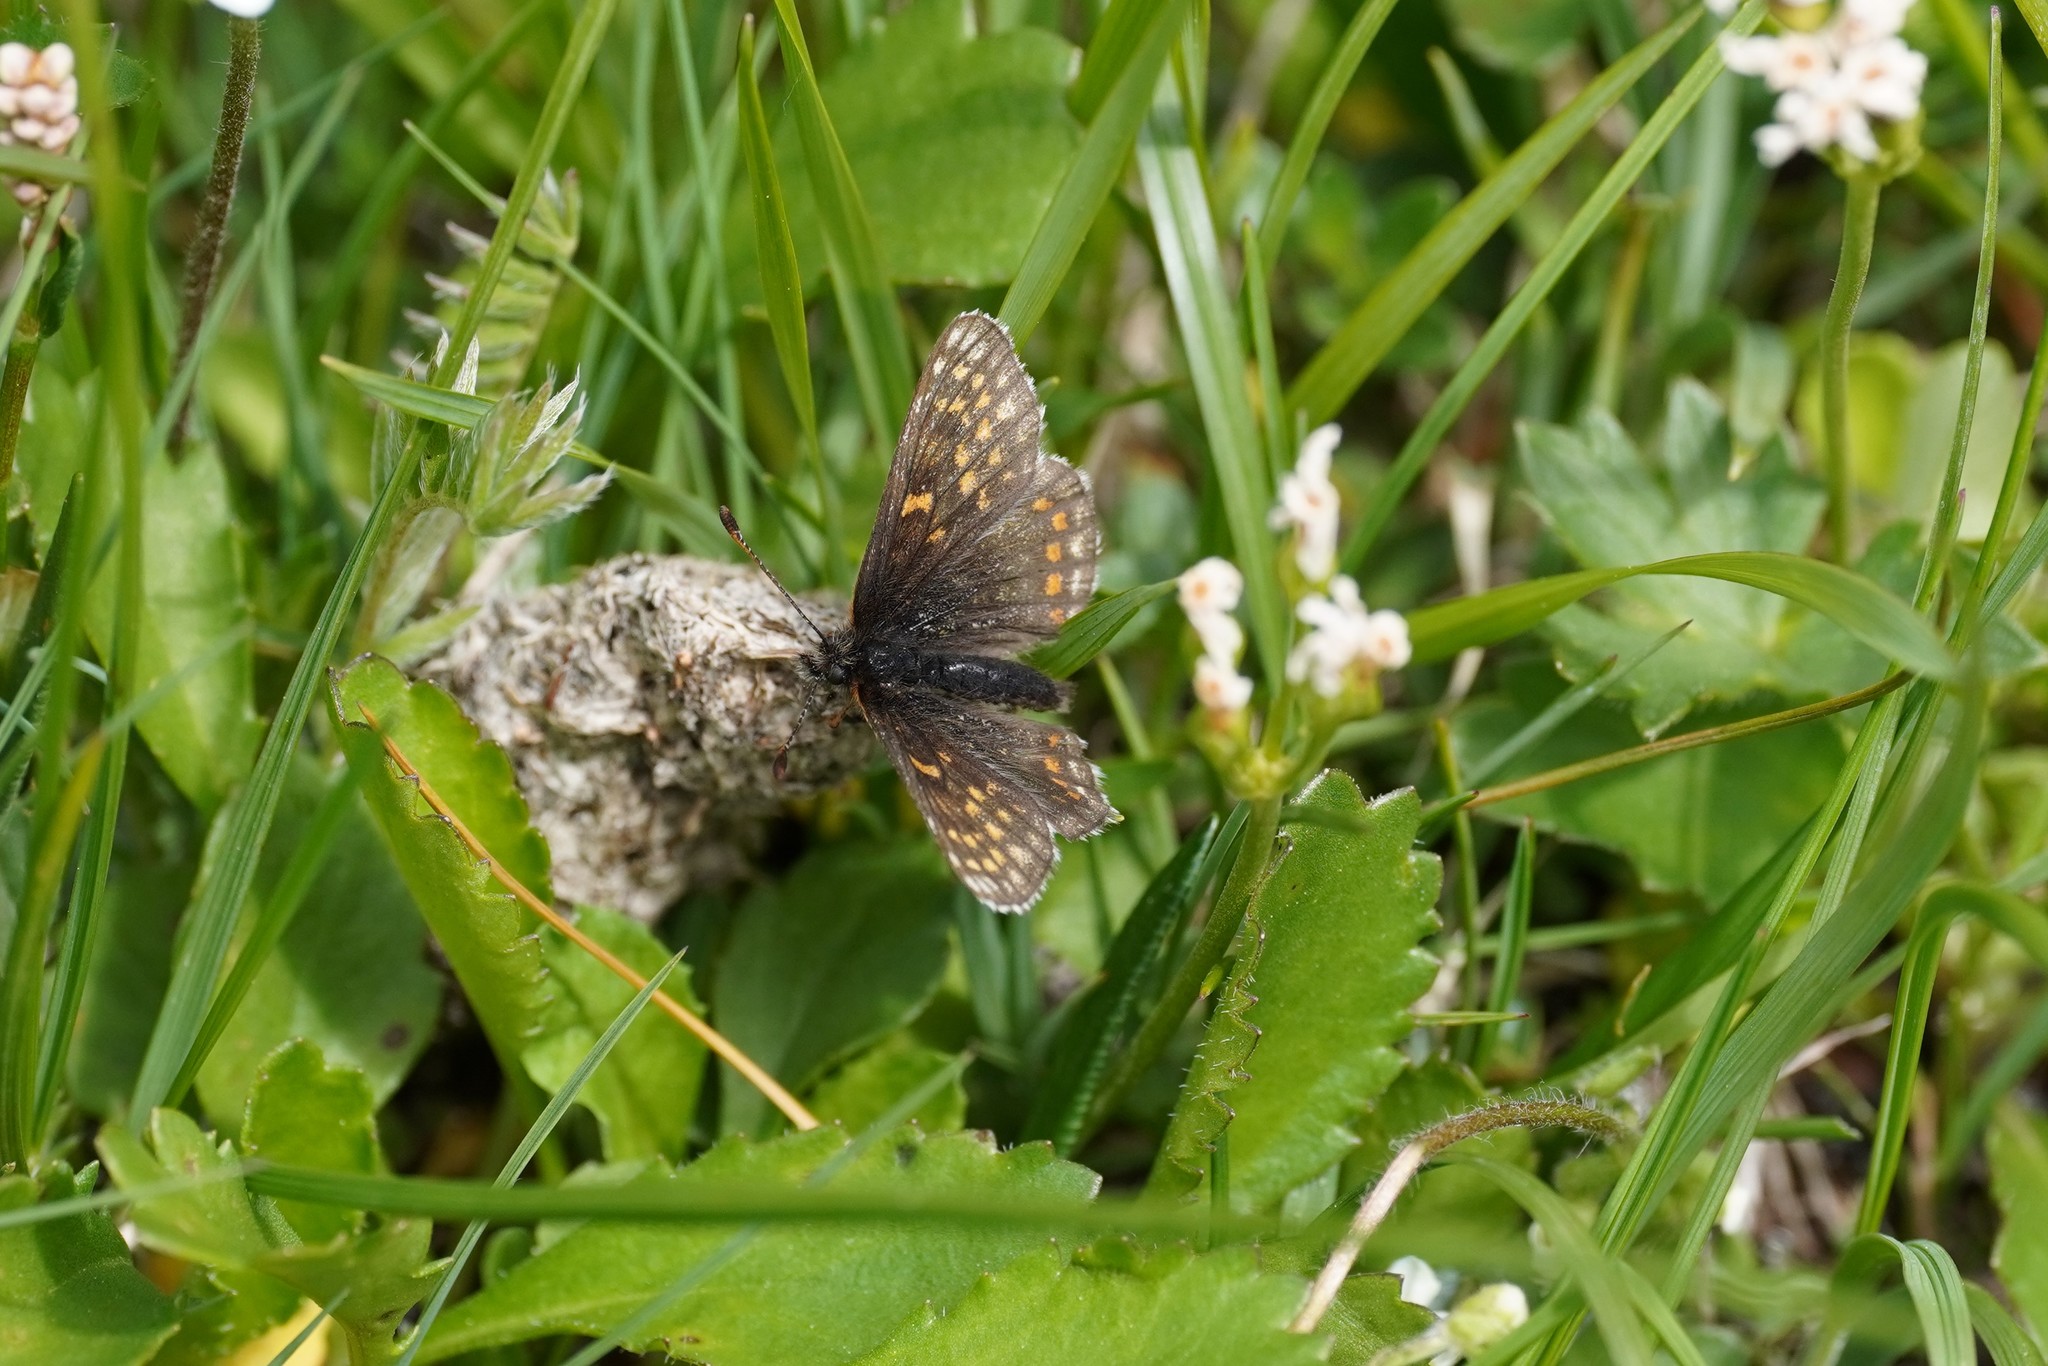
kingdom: Animalia
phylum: Arthropoda
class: Insecta
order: Lepidoptera
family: Nymphalidae
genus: Mellicta
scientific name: Mellicta asteria
